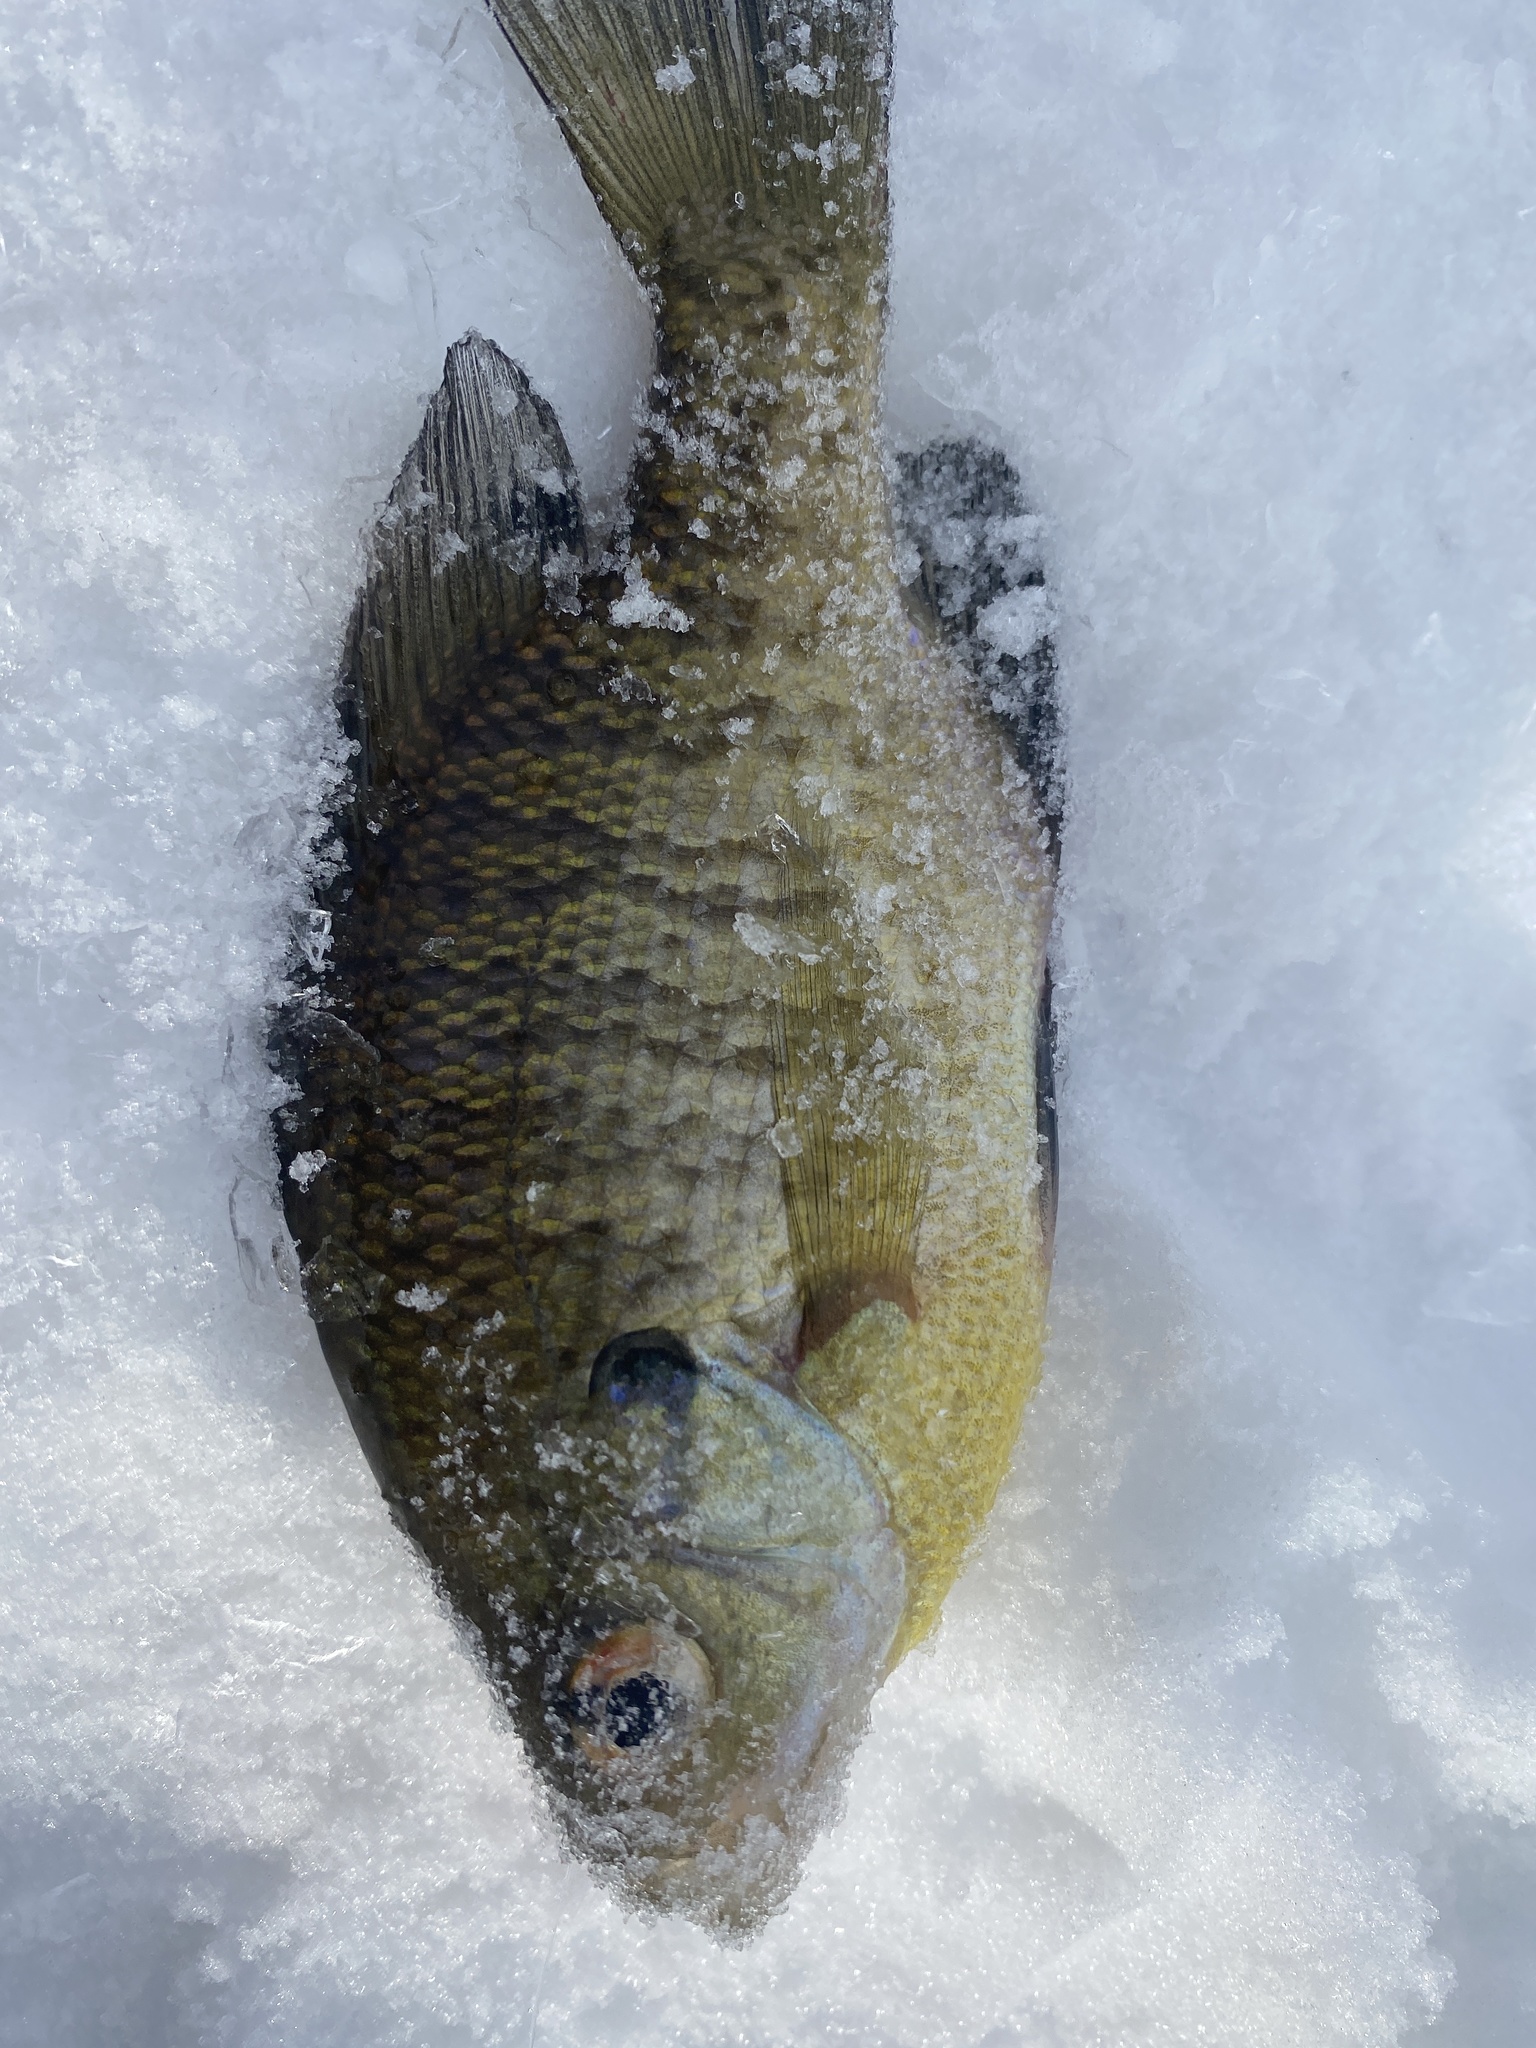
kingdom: Animalia
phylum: Chordata
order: Perciformes
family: Centrarchidae
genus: Lepomis
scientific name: Lepomis macrochirus
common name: Bluegill
